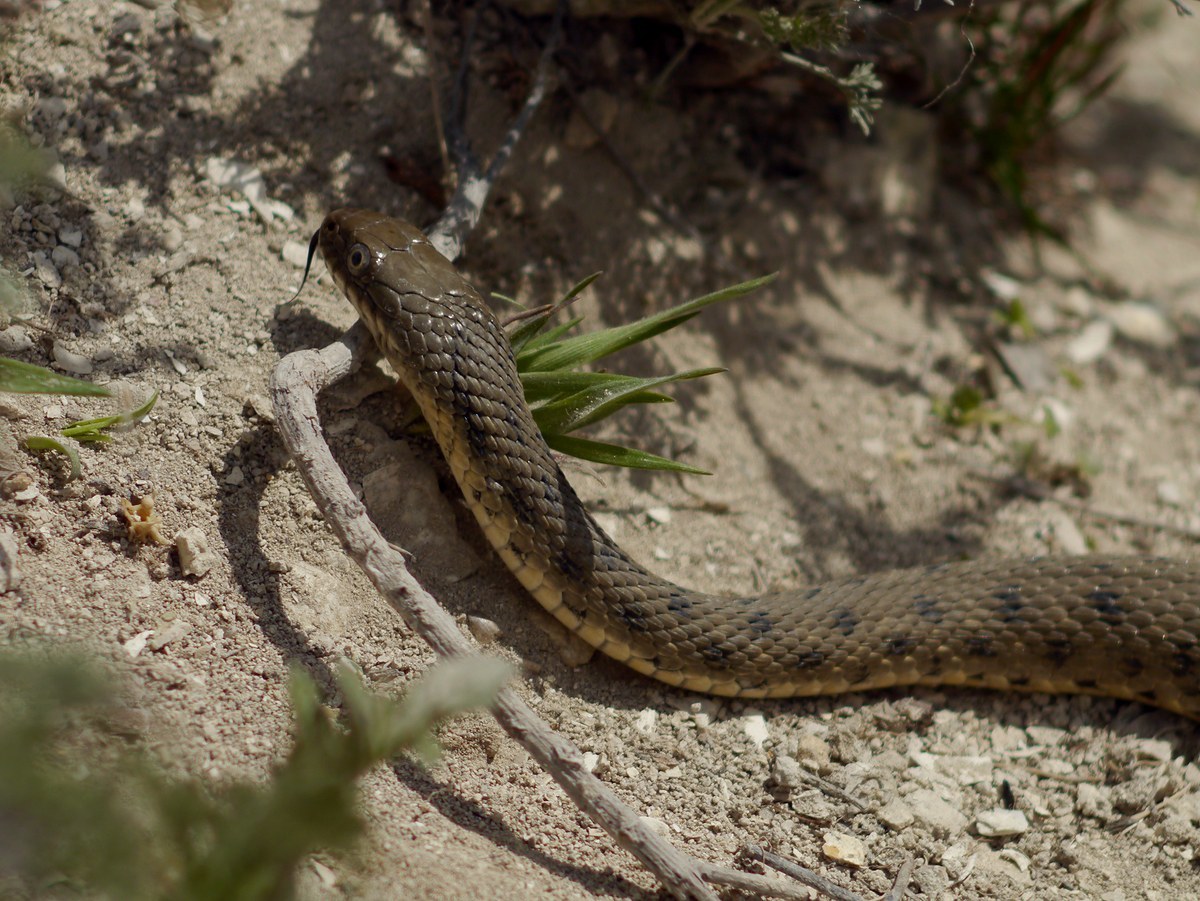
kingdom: Animalia
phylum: Chordata
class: Squamata
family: Colubridae
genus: Natrix
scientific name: Natrix tessellata
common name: Dice snake
